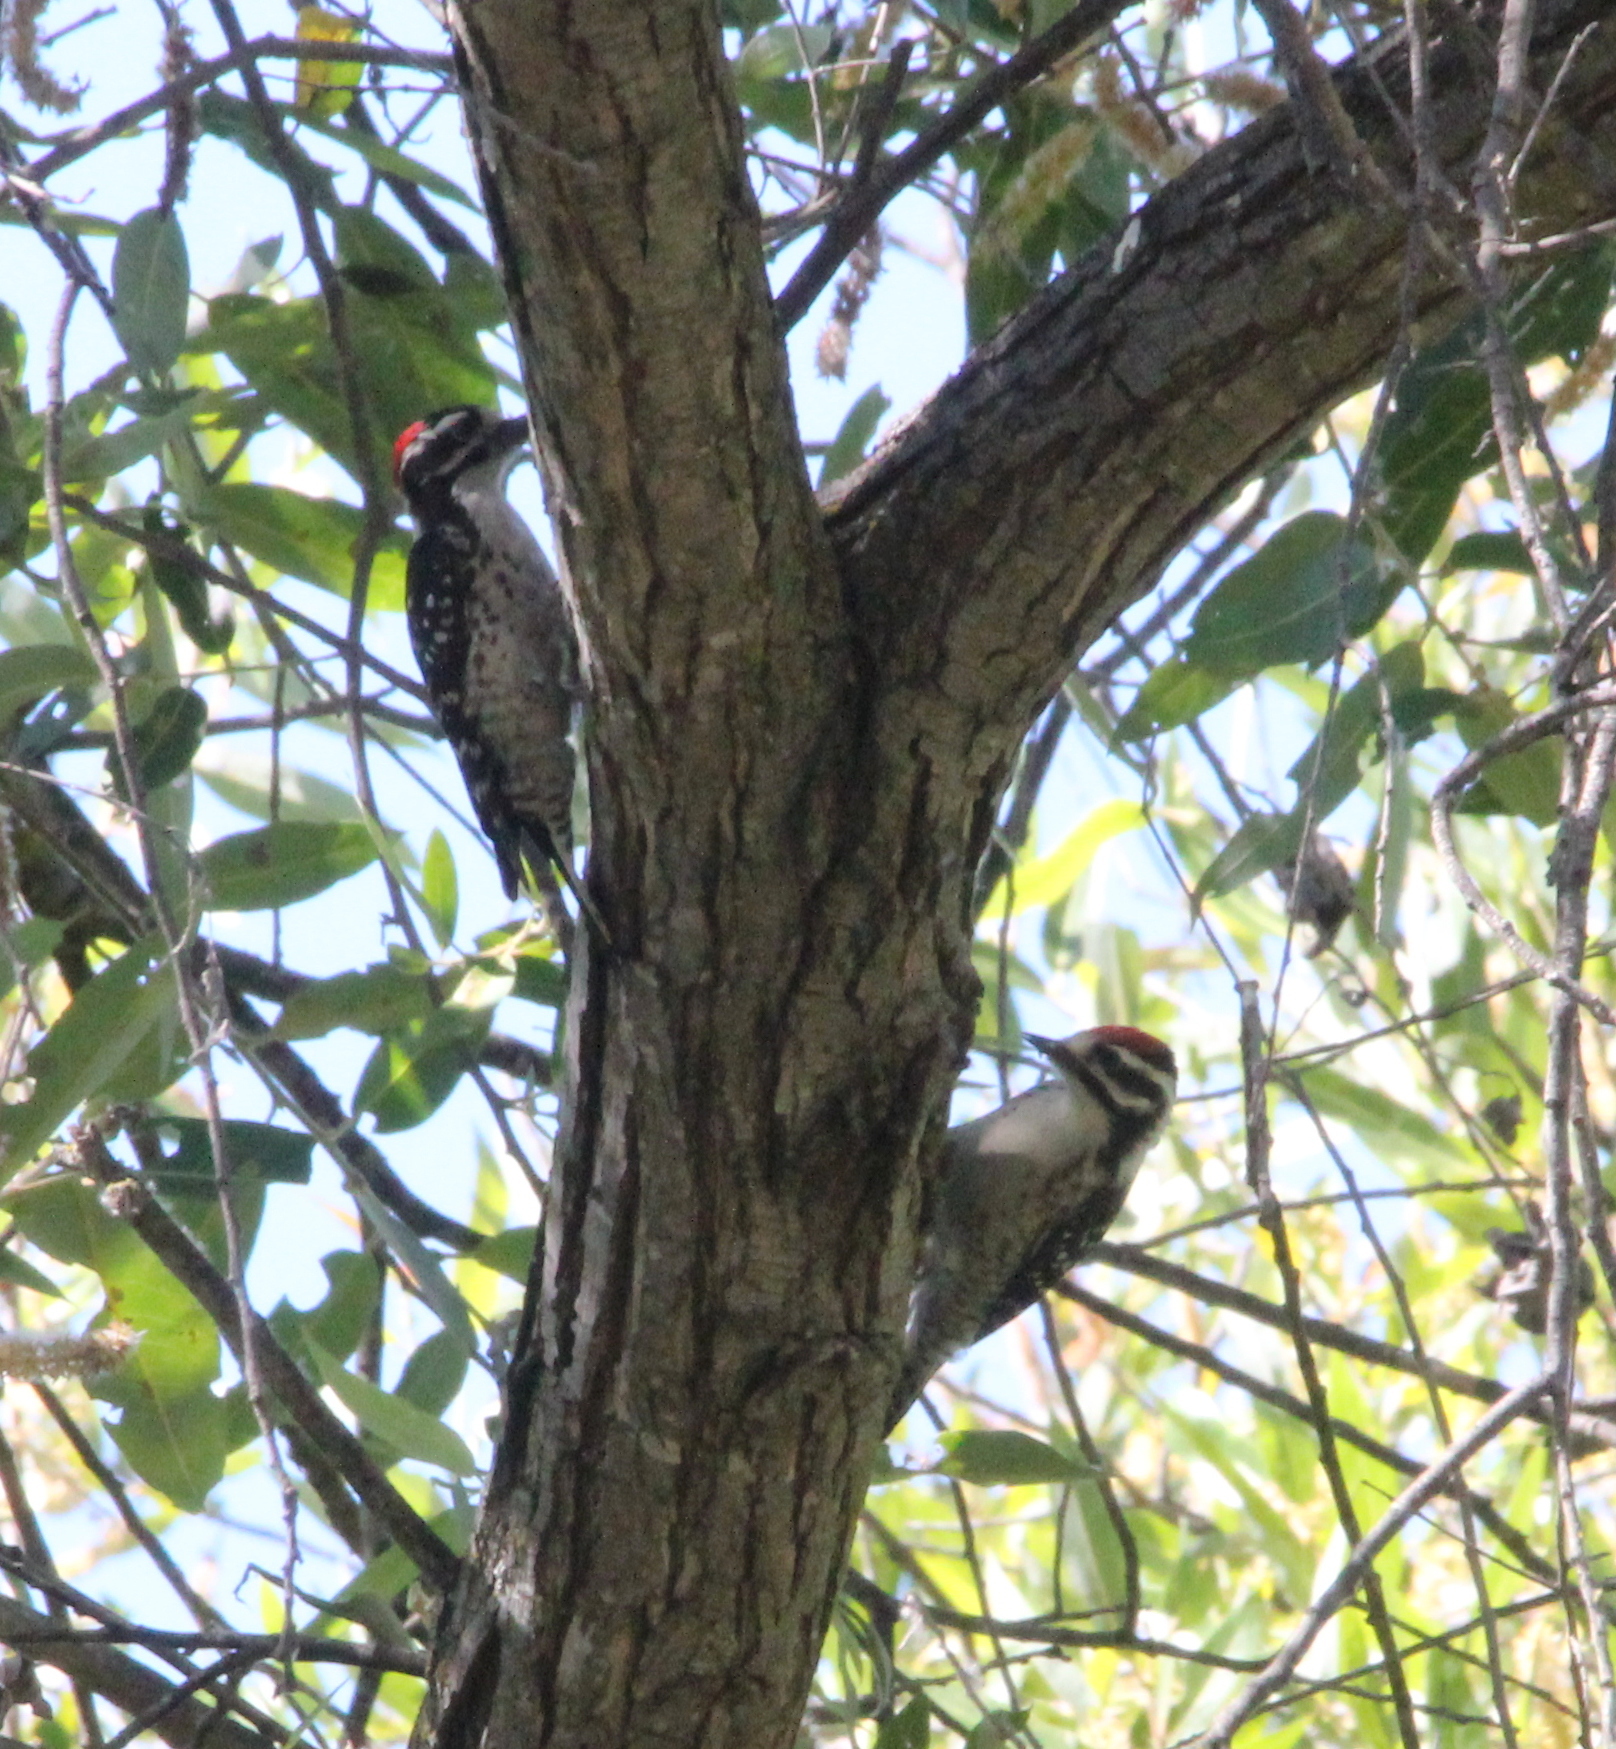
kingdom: Animalia
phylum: Chordata
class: Aves
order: Piciformes
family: Picidae
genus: Dryobates
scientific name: Dryobates nuttallii
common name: Nuttall's woodpecker
